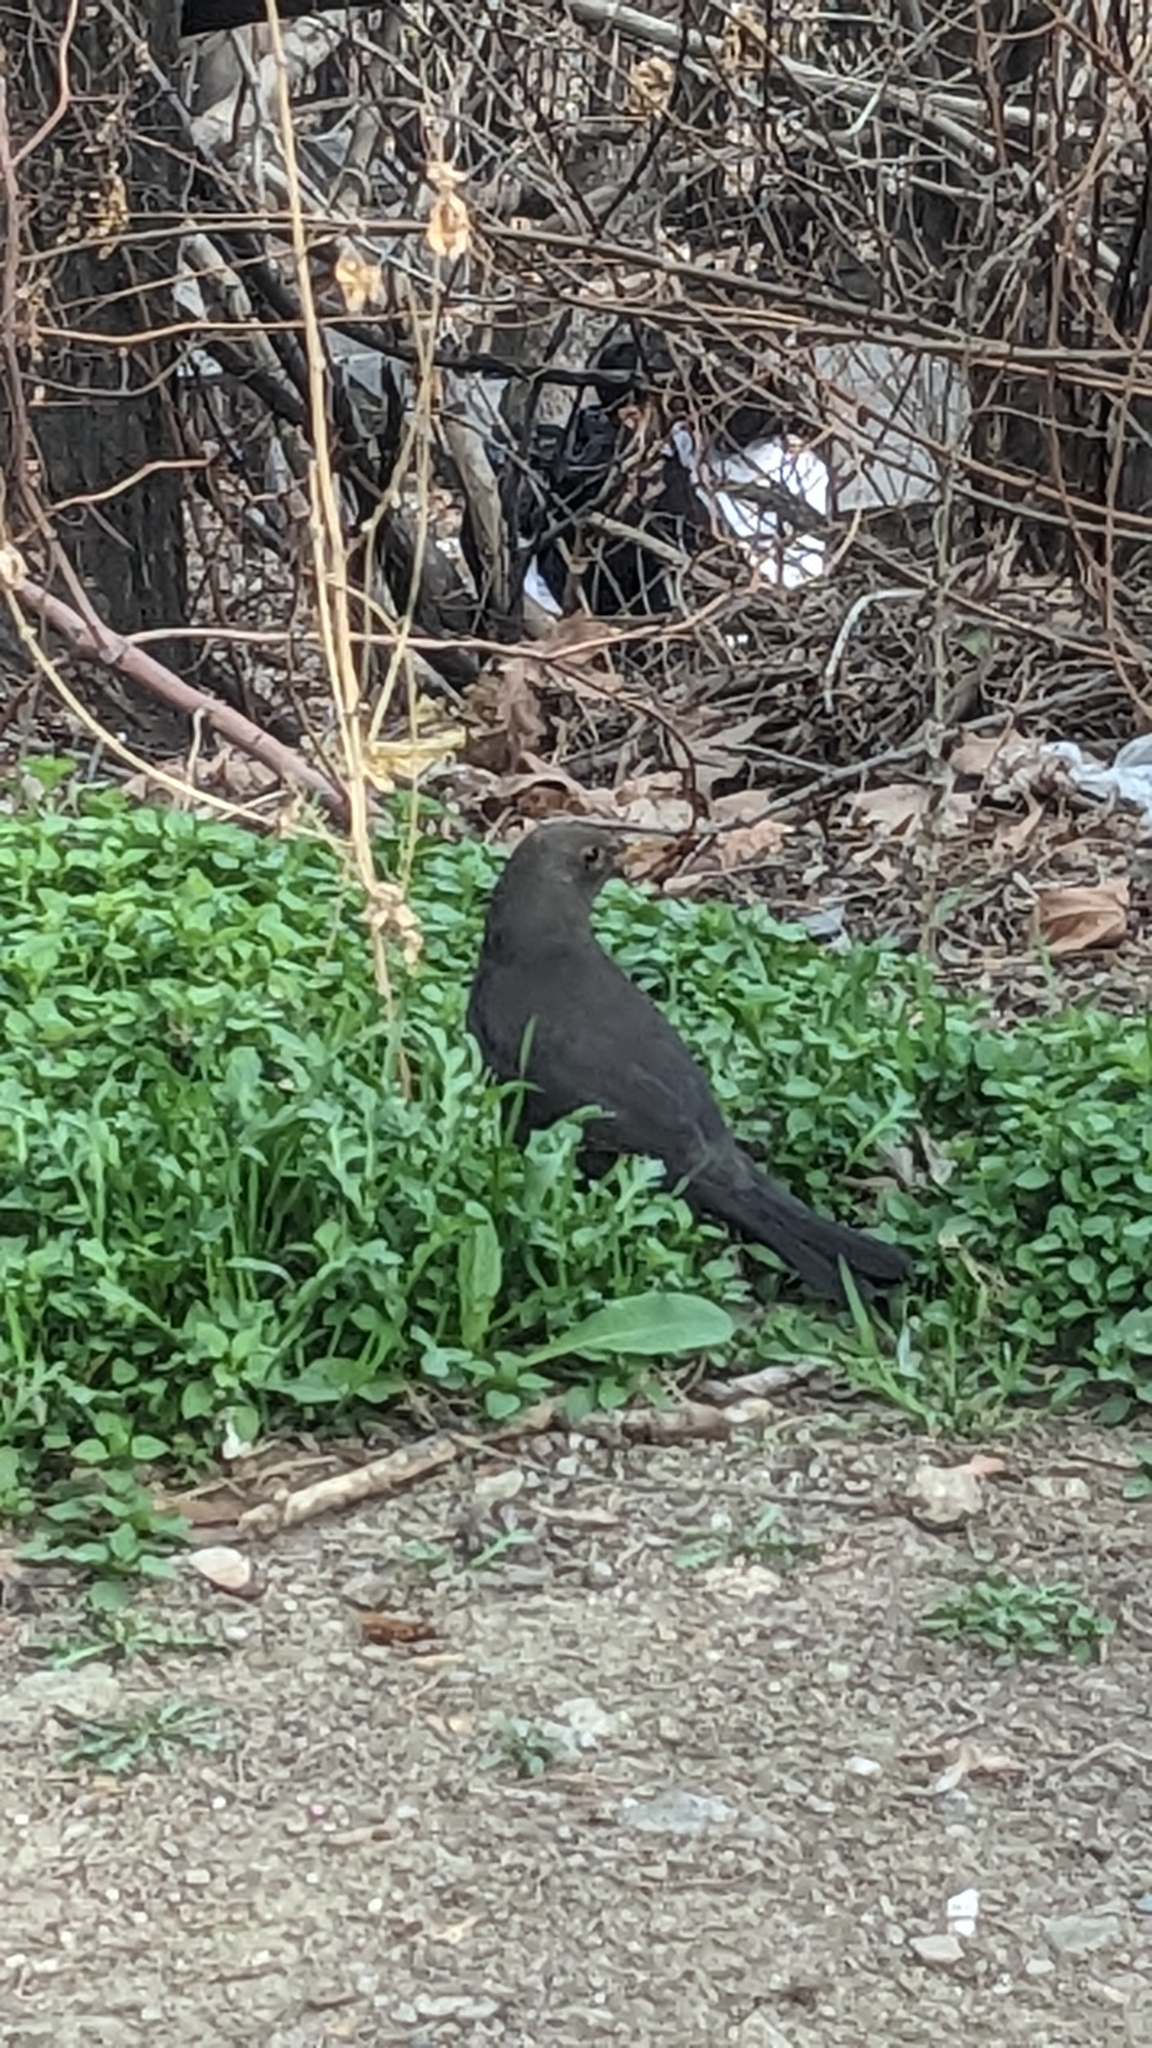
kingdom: Animalia
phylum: Chordata
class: Aves
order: Passeriformes
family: Turdidae
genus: Turdus
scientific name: Turdus merula
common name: Common blackbird
